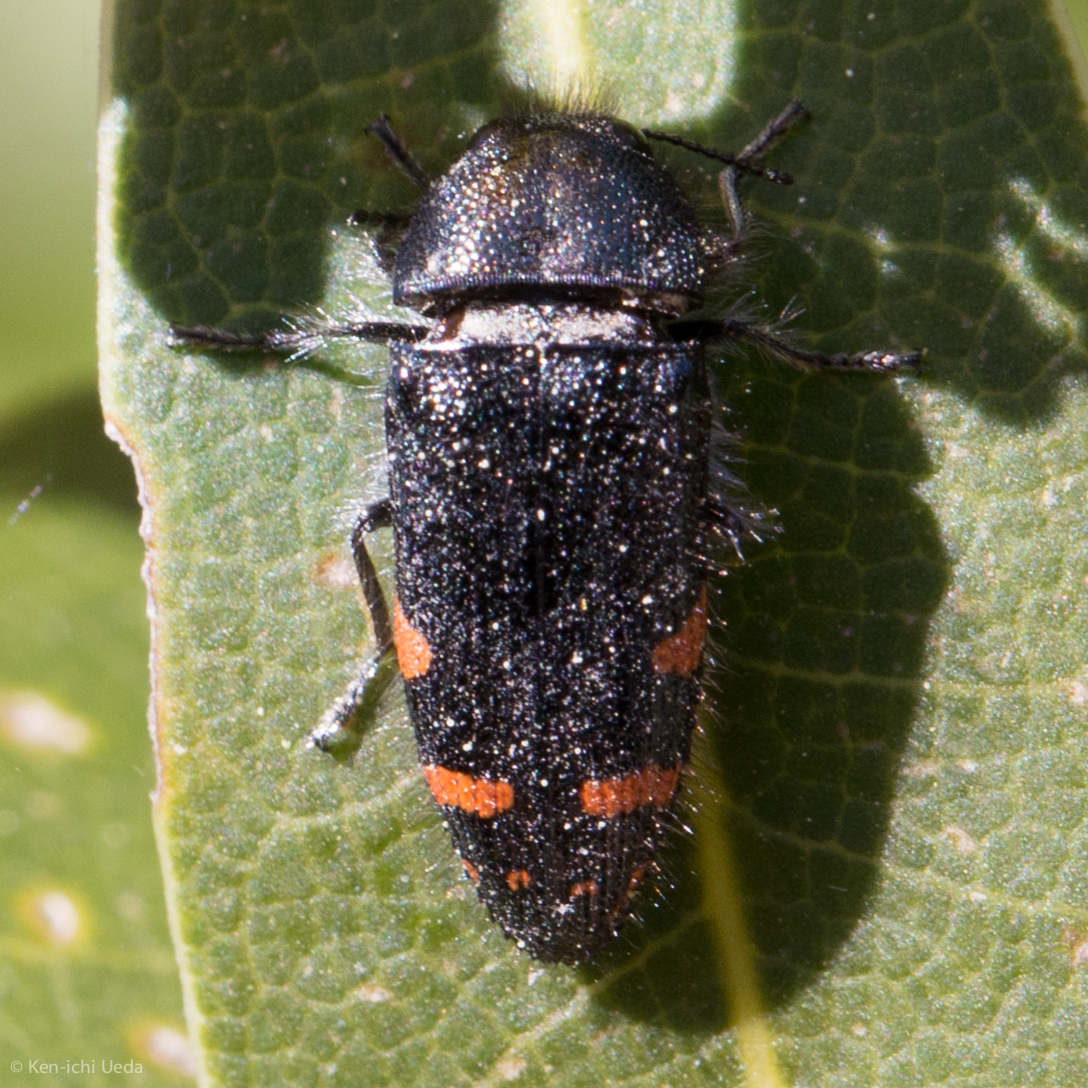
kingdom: Animalia
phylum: Arthropoda
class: Insecta
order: Coleoptera
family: Buprestidae
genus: Acmaeodera
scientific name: Acmaeodera mariposa
